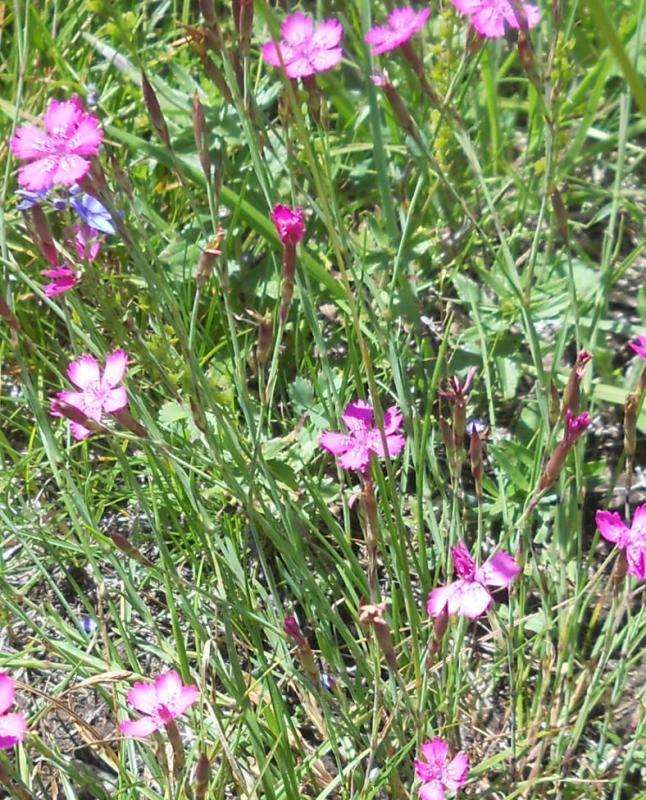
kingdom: Plantae
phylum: Tracheophyta
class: Magnoliopsida
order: Caryophyllales
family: Caryophyllaceae
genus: Dianthus
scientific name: Dianthus deltoides
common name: Maiden pink
